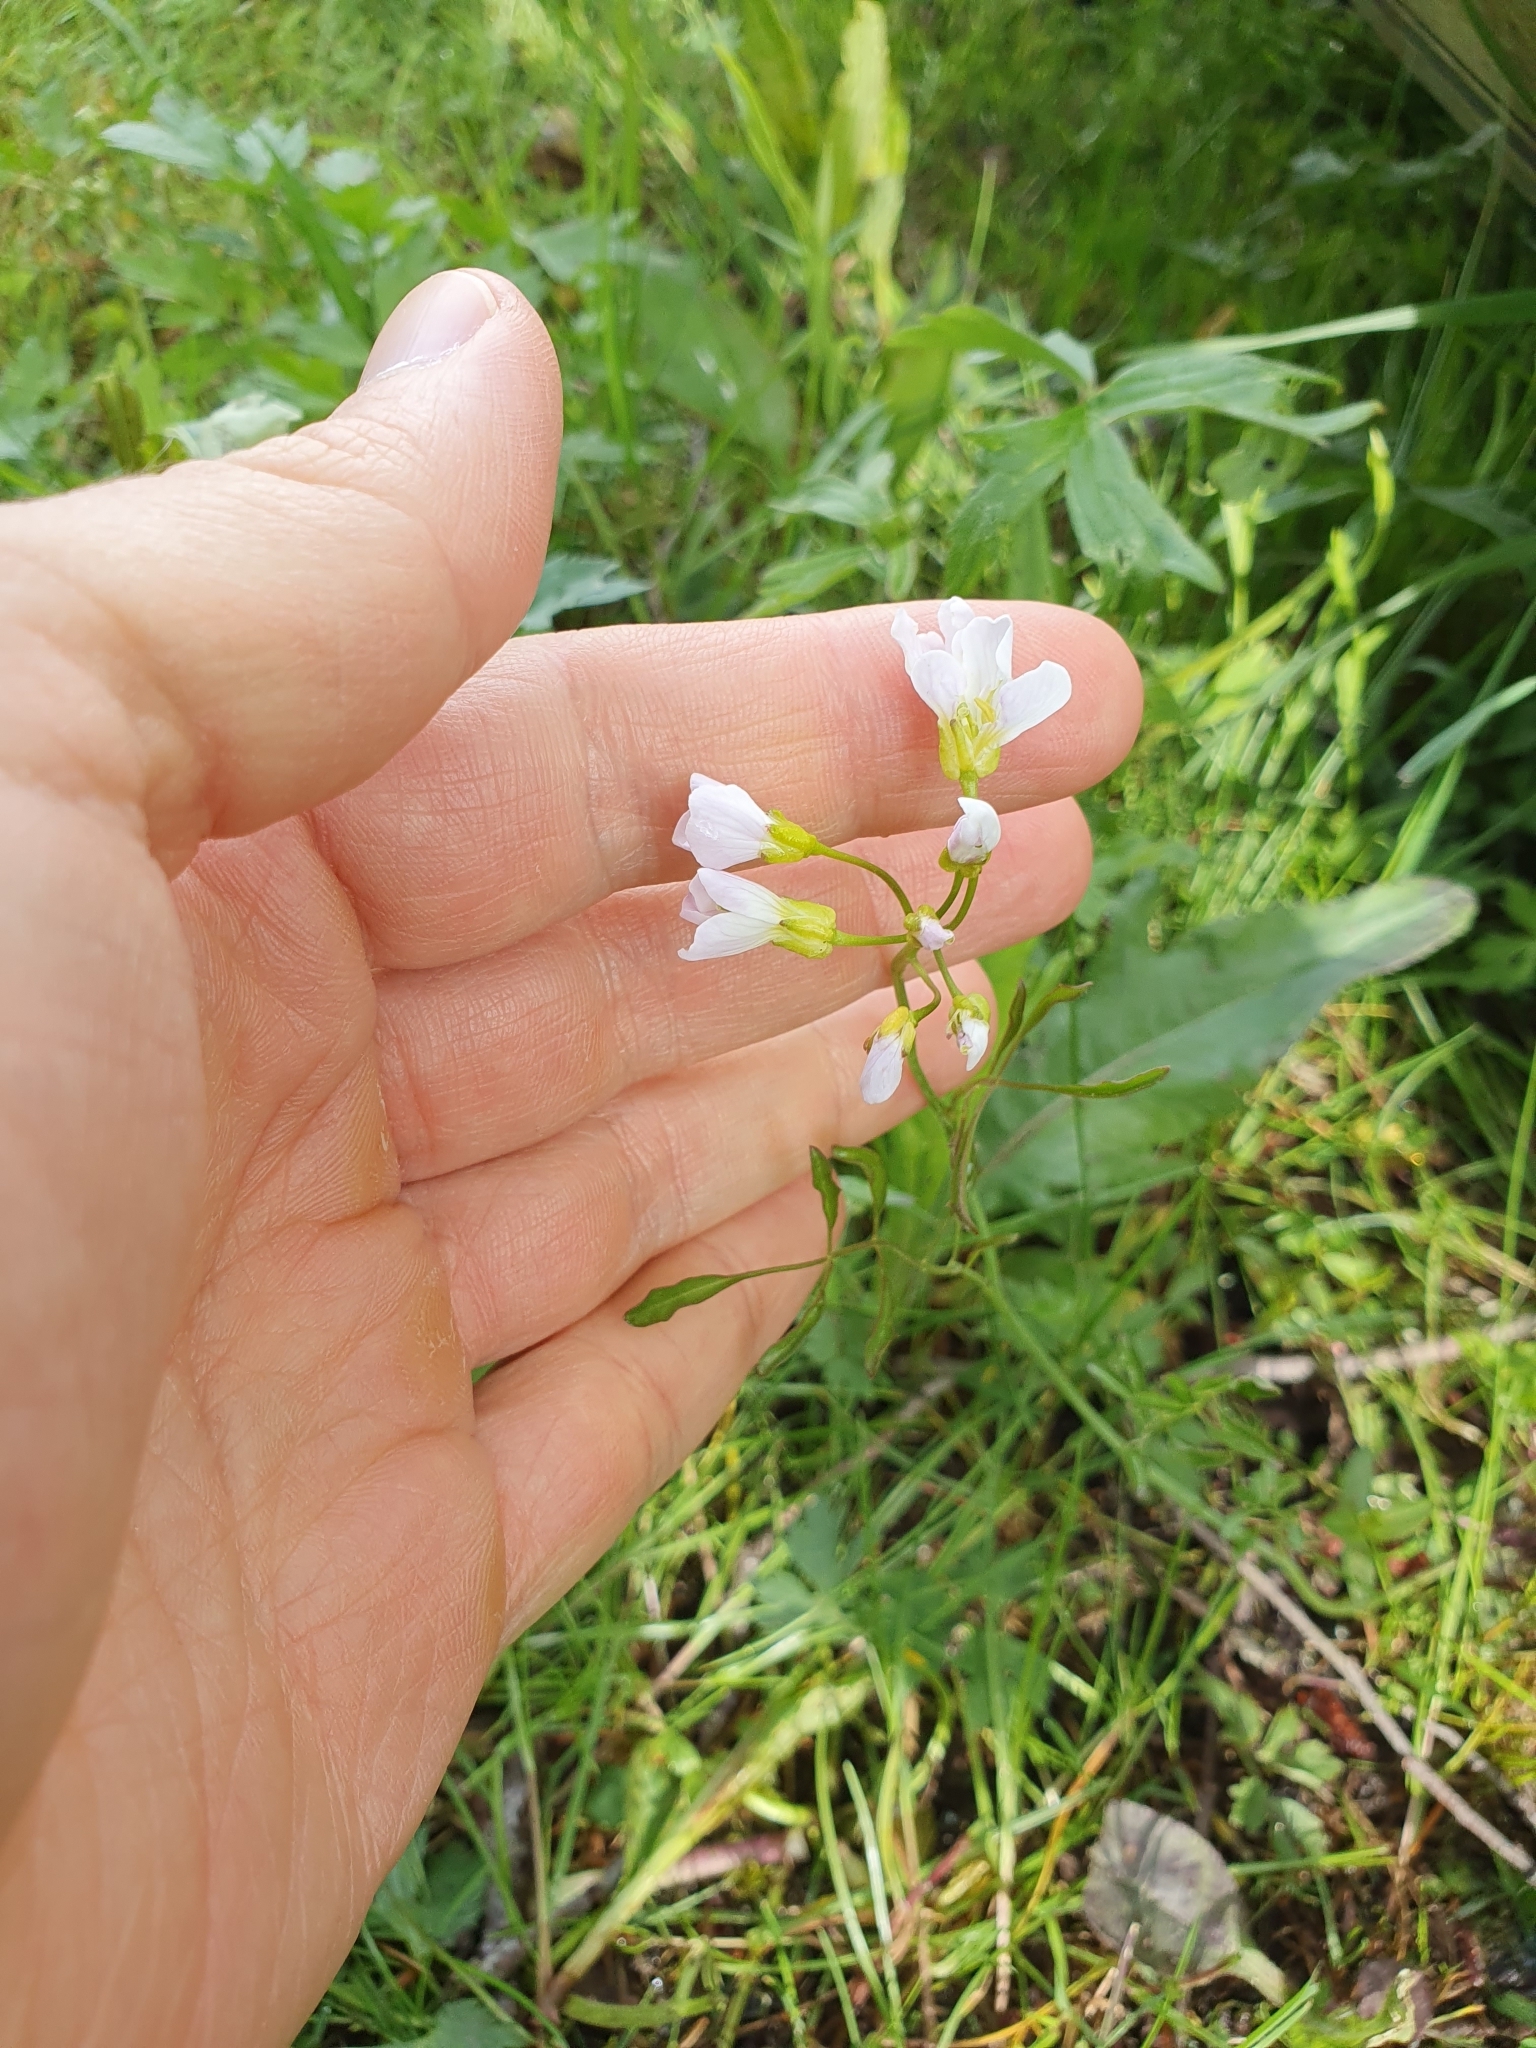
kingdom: Plantae
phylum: Tracheophyta
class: Magnoliopsida
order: Brassicales
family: Brassicaceae
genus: Cardamine
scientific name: Cardamine pratensis
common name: Cuckoo flower
